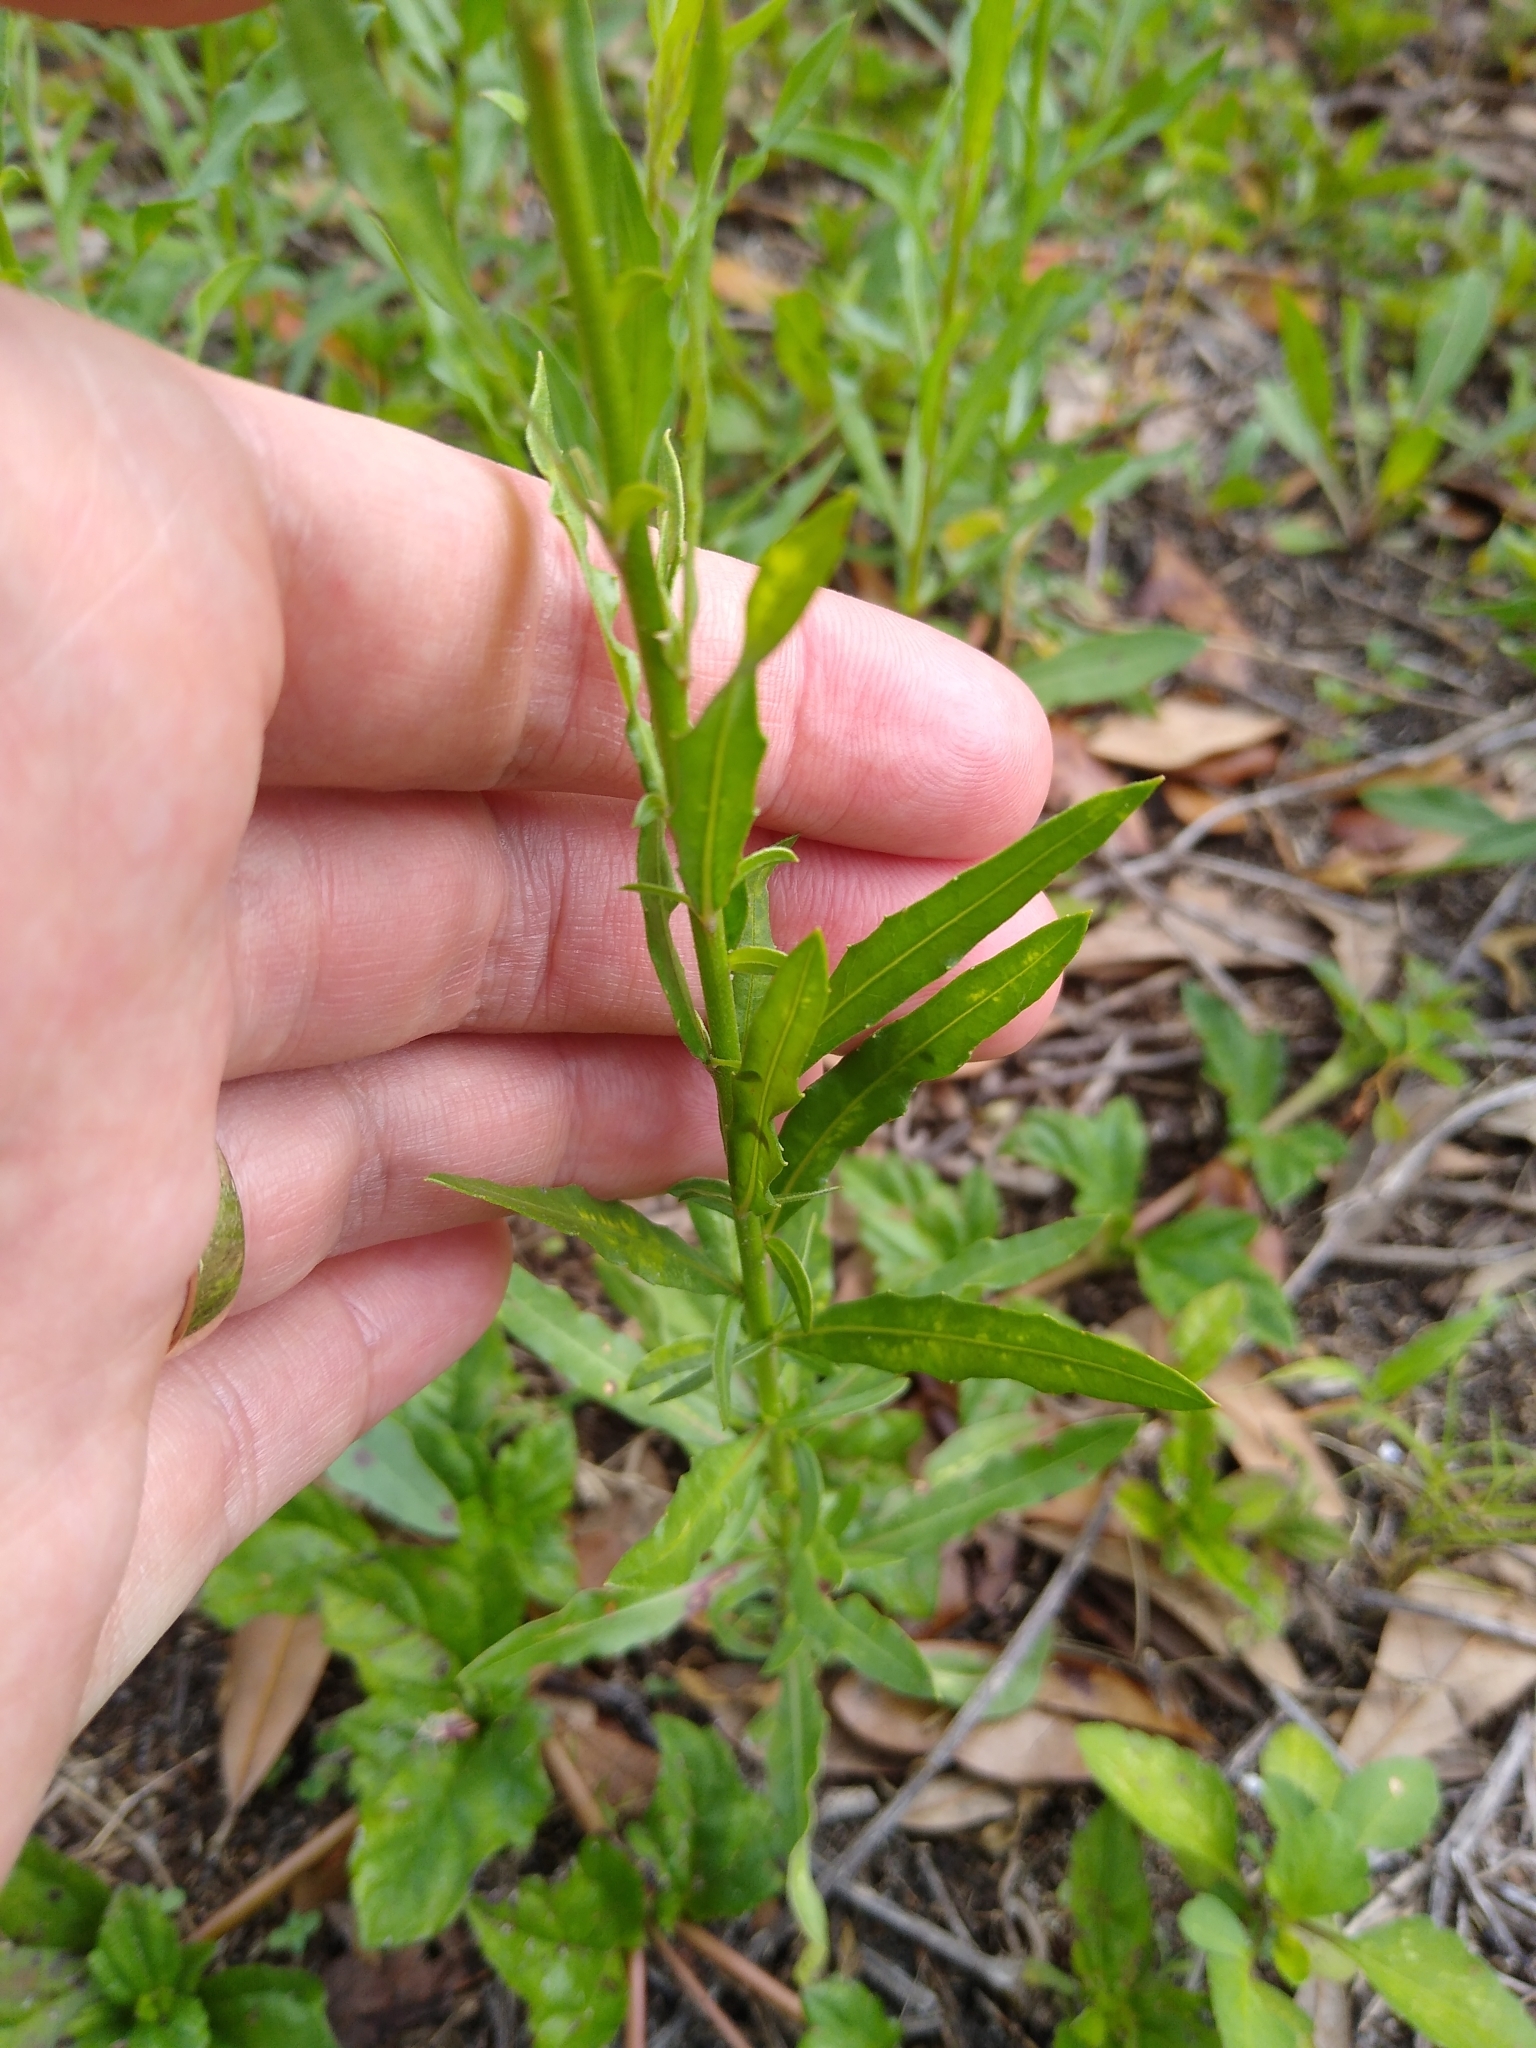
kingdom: Plantae
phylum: Tracheophyta
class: Magnoliopsida
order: Myrtales
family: Onagraceae
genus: Oenothera
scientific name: Oenothera simulans
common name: Southern beeblossom
